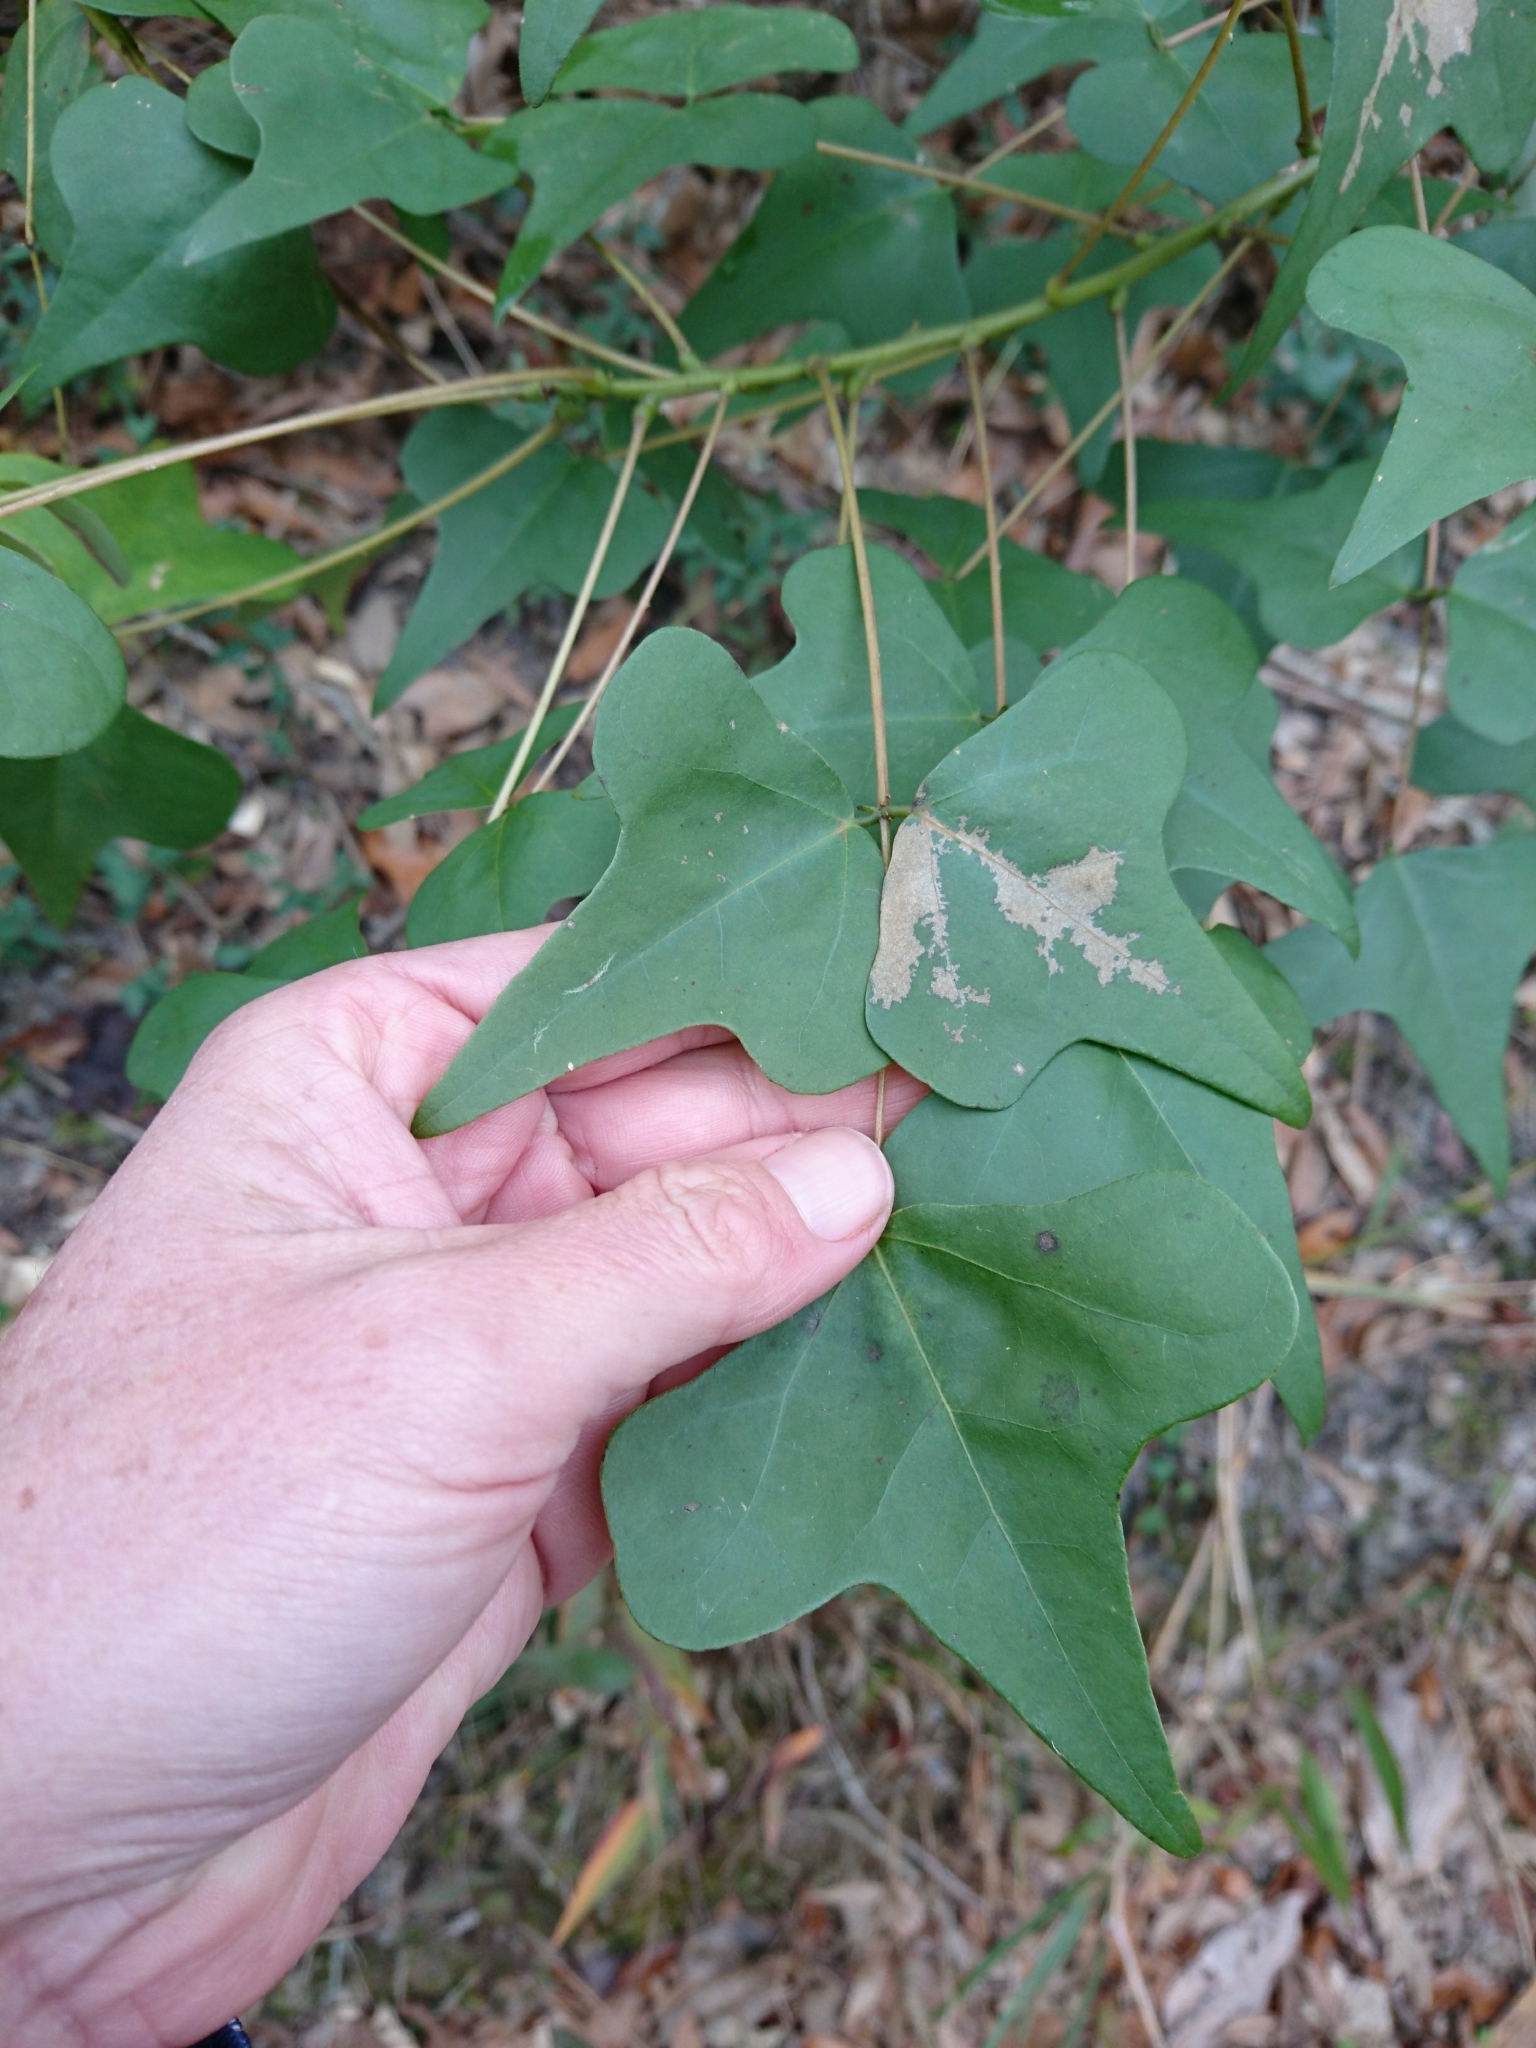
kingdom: Plantae
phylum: Tracheophyta
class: Magnoliopsida
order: Fabales
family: Fabaceae
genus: Erythrina
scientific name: Erythrina herbacea
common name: Coral-bean
